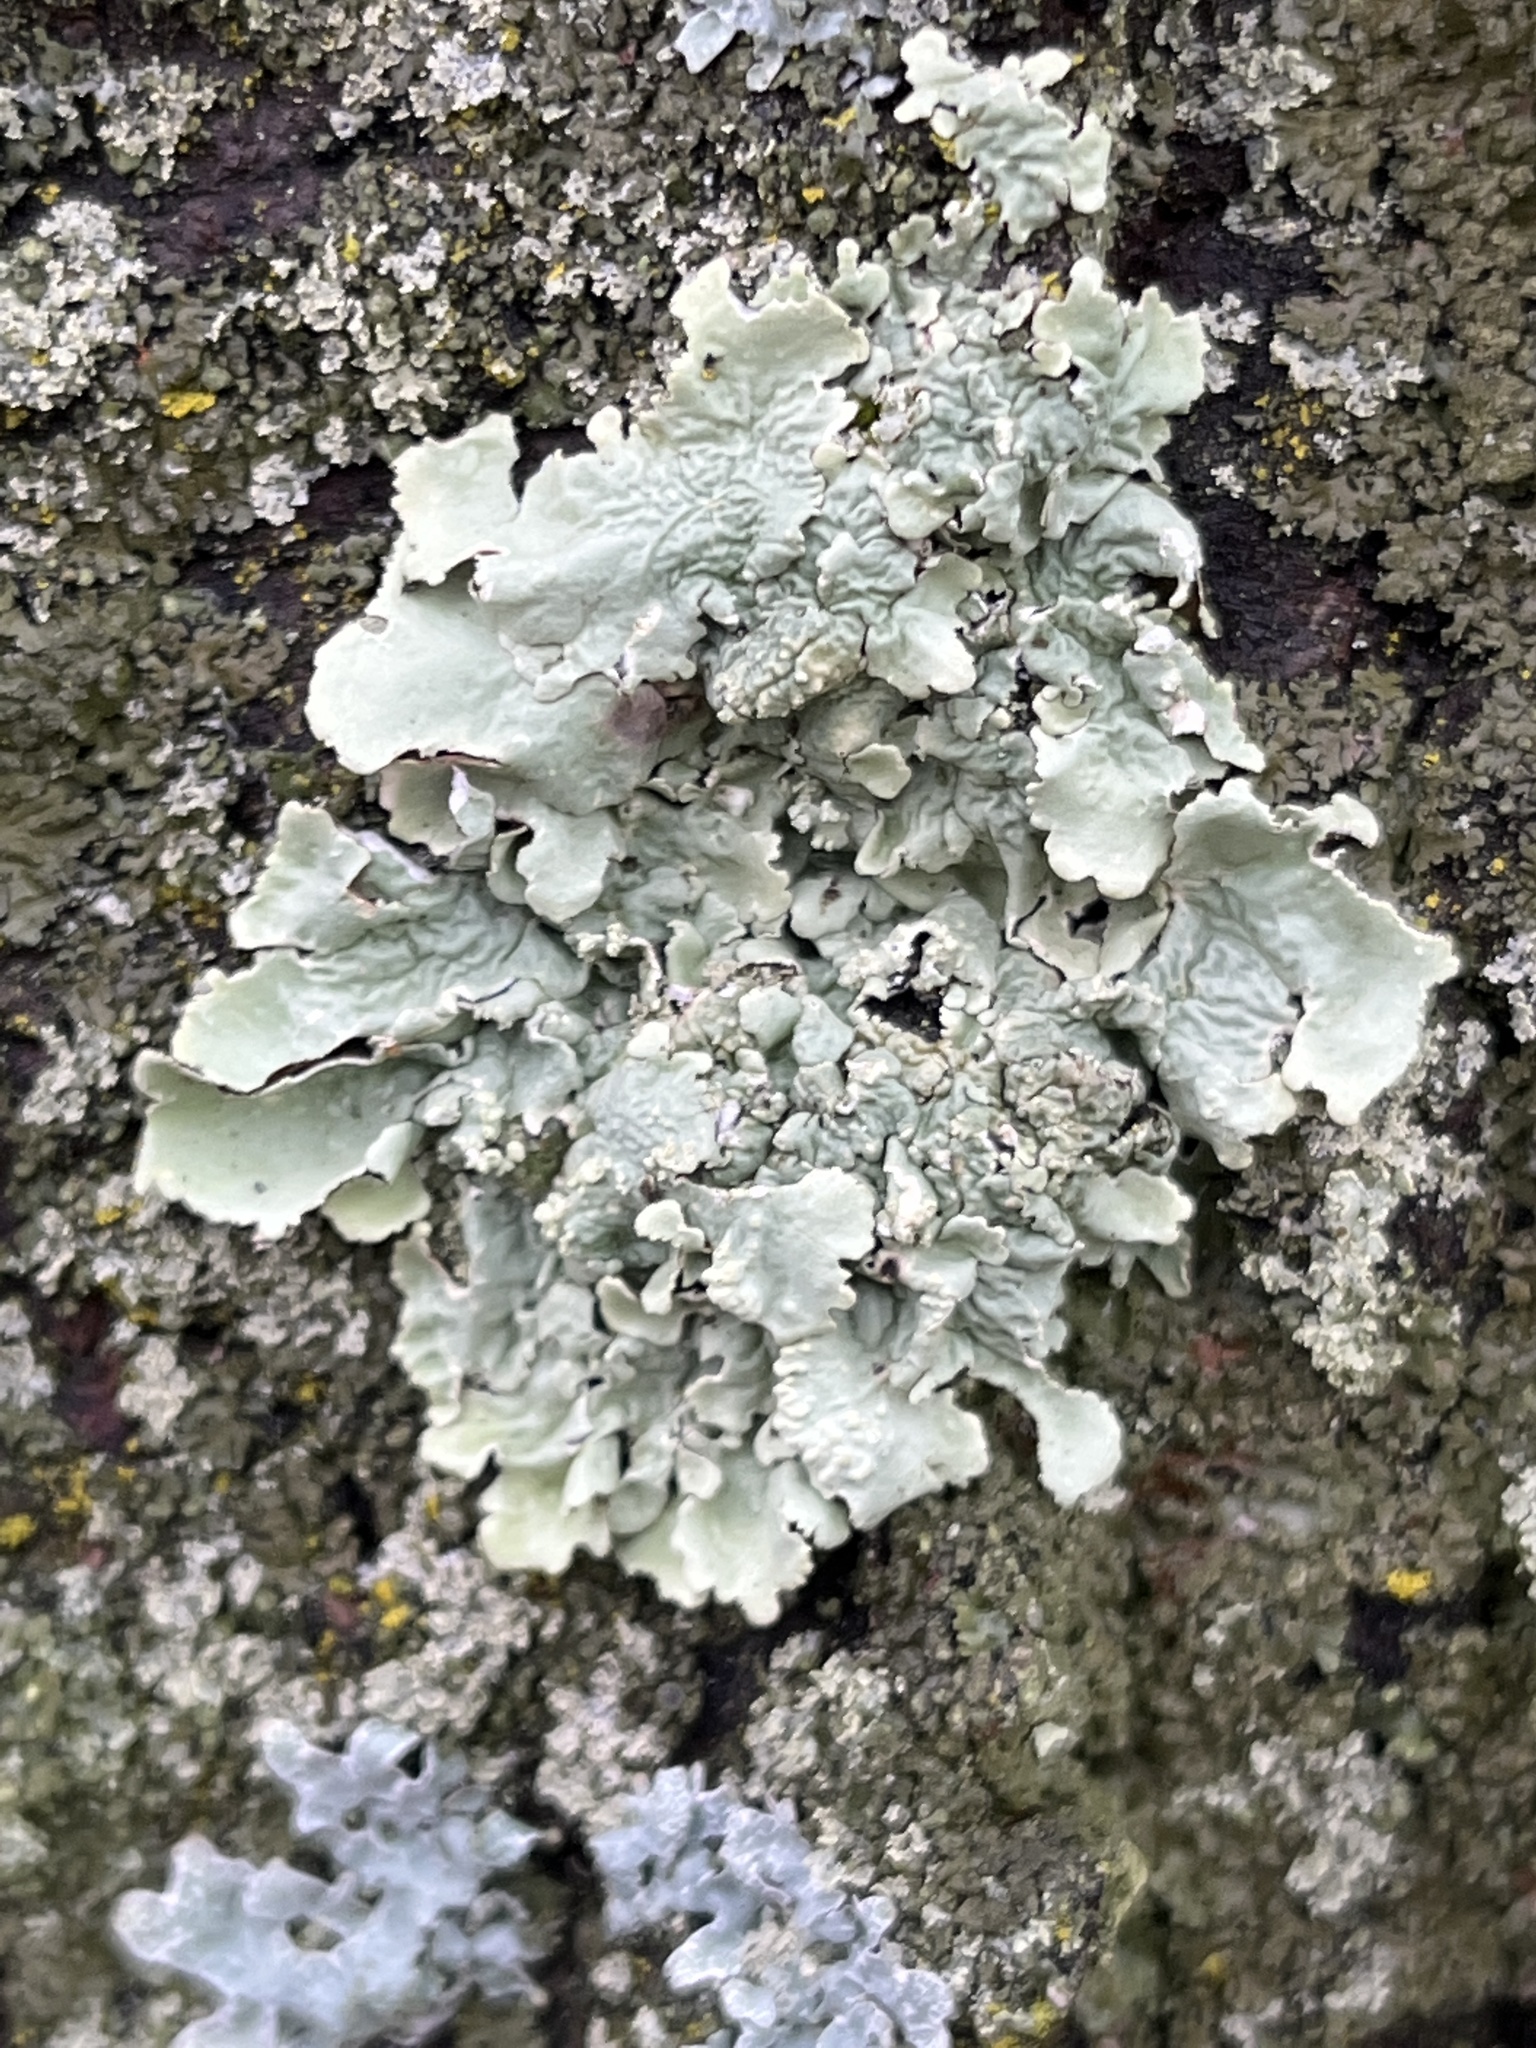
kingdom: Fungi
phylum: Ascomycota
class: Lecanoromycetes
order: Lecanorales
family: Parmeliaceae
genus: Flavoparmelia
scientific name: Flavoparmelia caperata
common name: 40-mile per hour lichen
